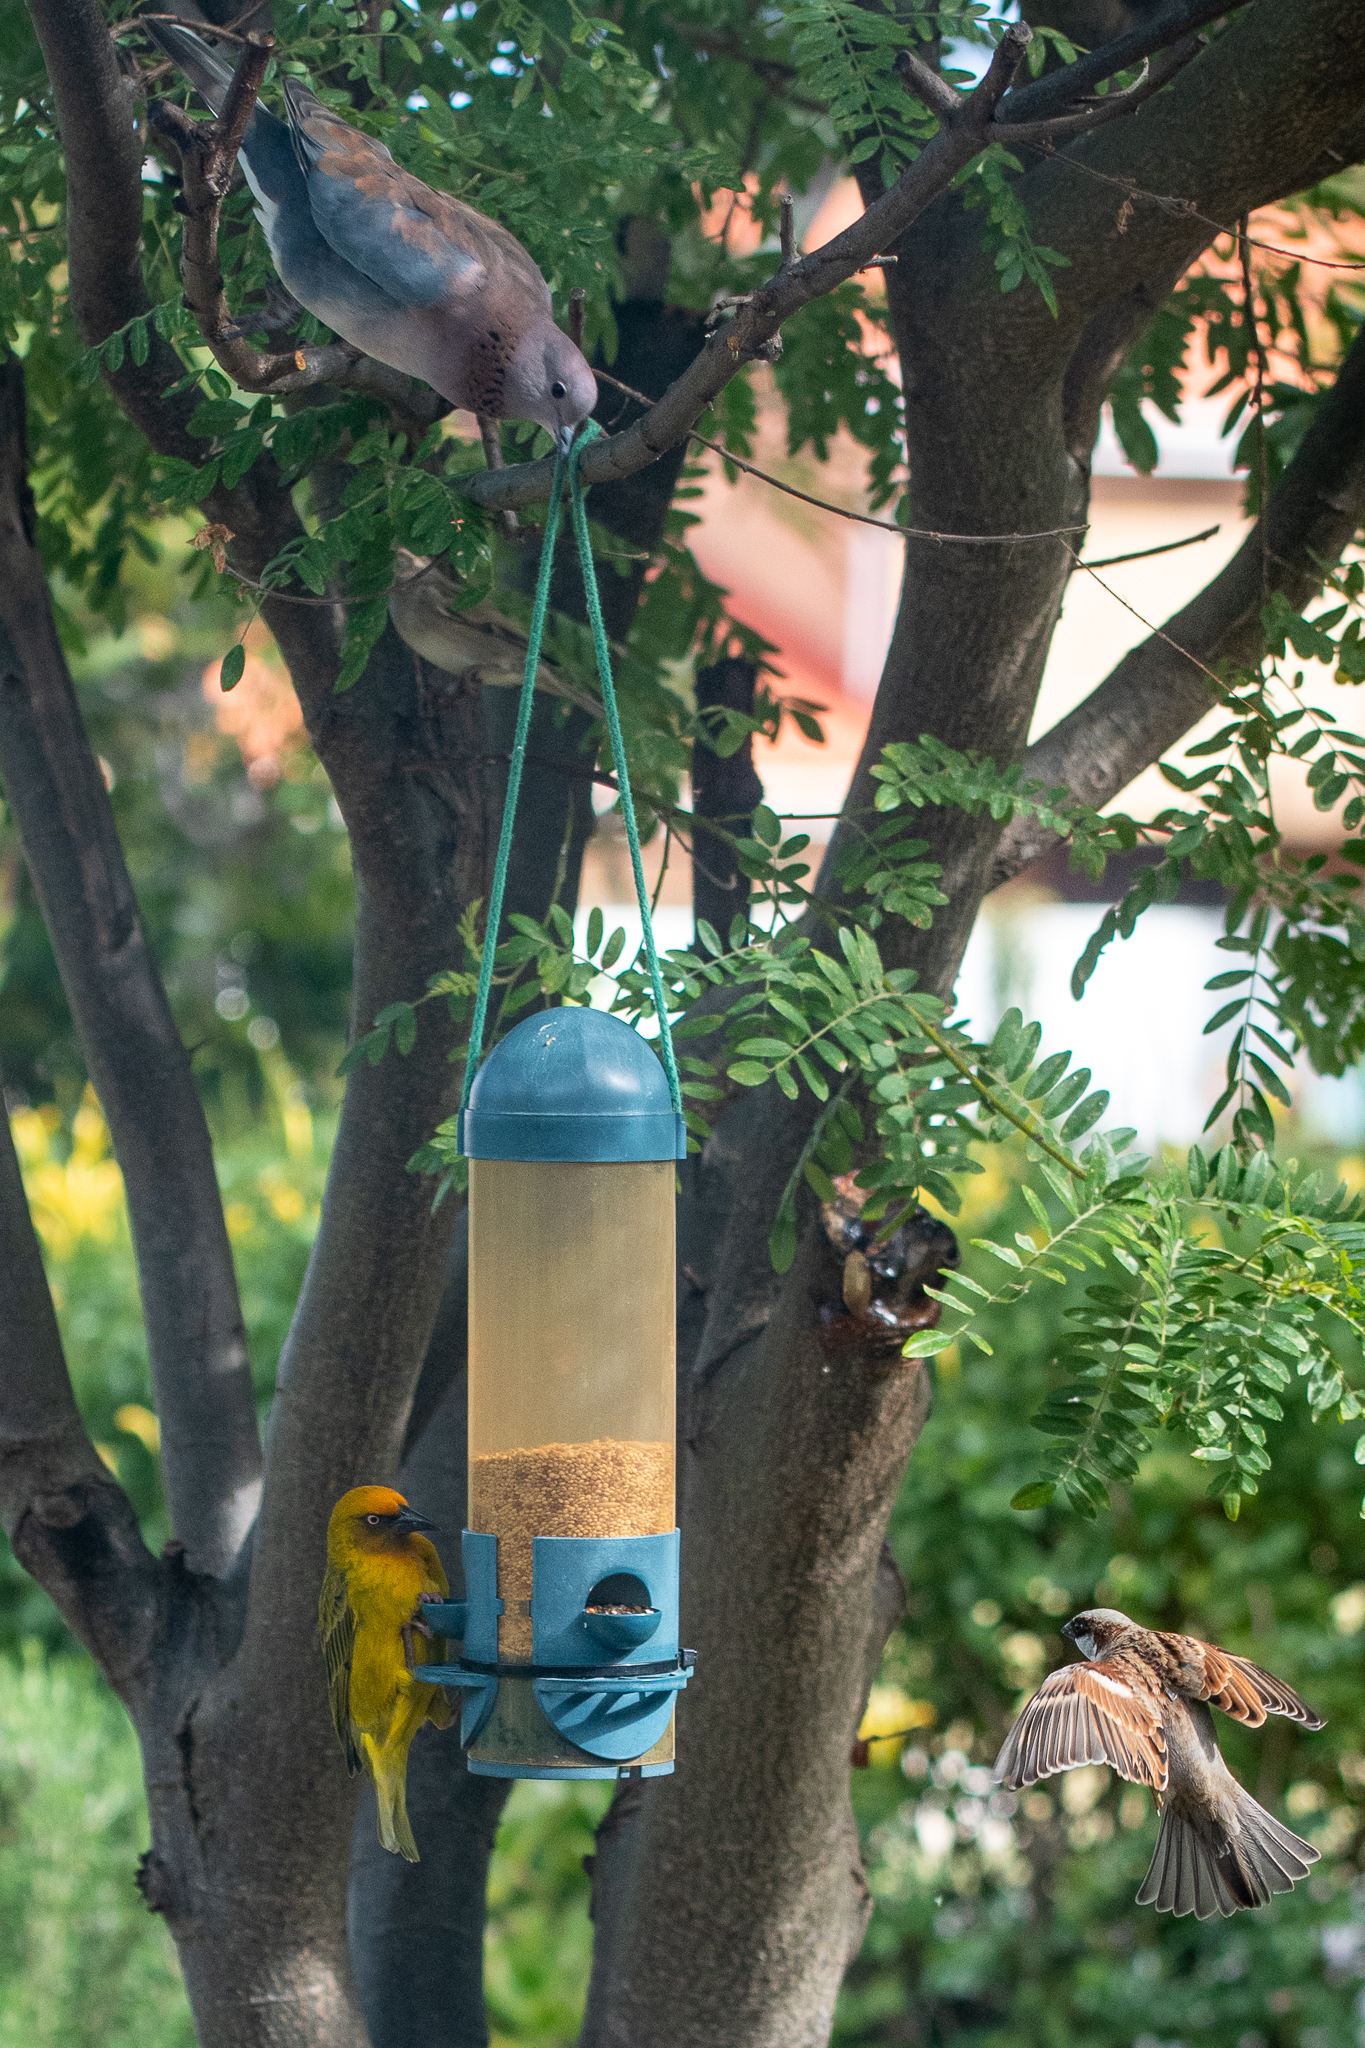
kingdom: Animalia
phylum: Chordata
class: Aves
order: Passeriformes
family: Ploceidae
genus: Ploceus
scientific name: Ploceus capensis
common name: Cape weaver
